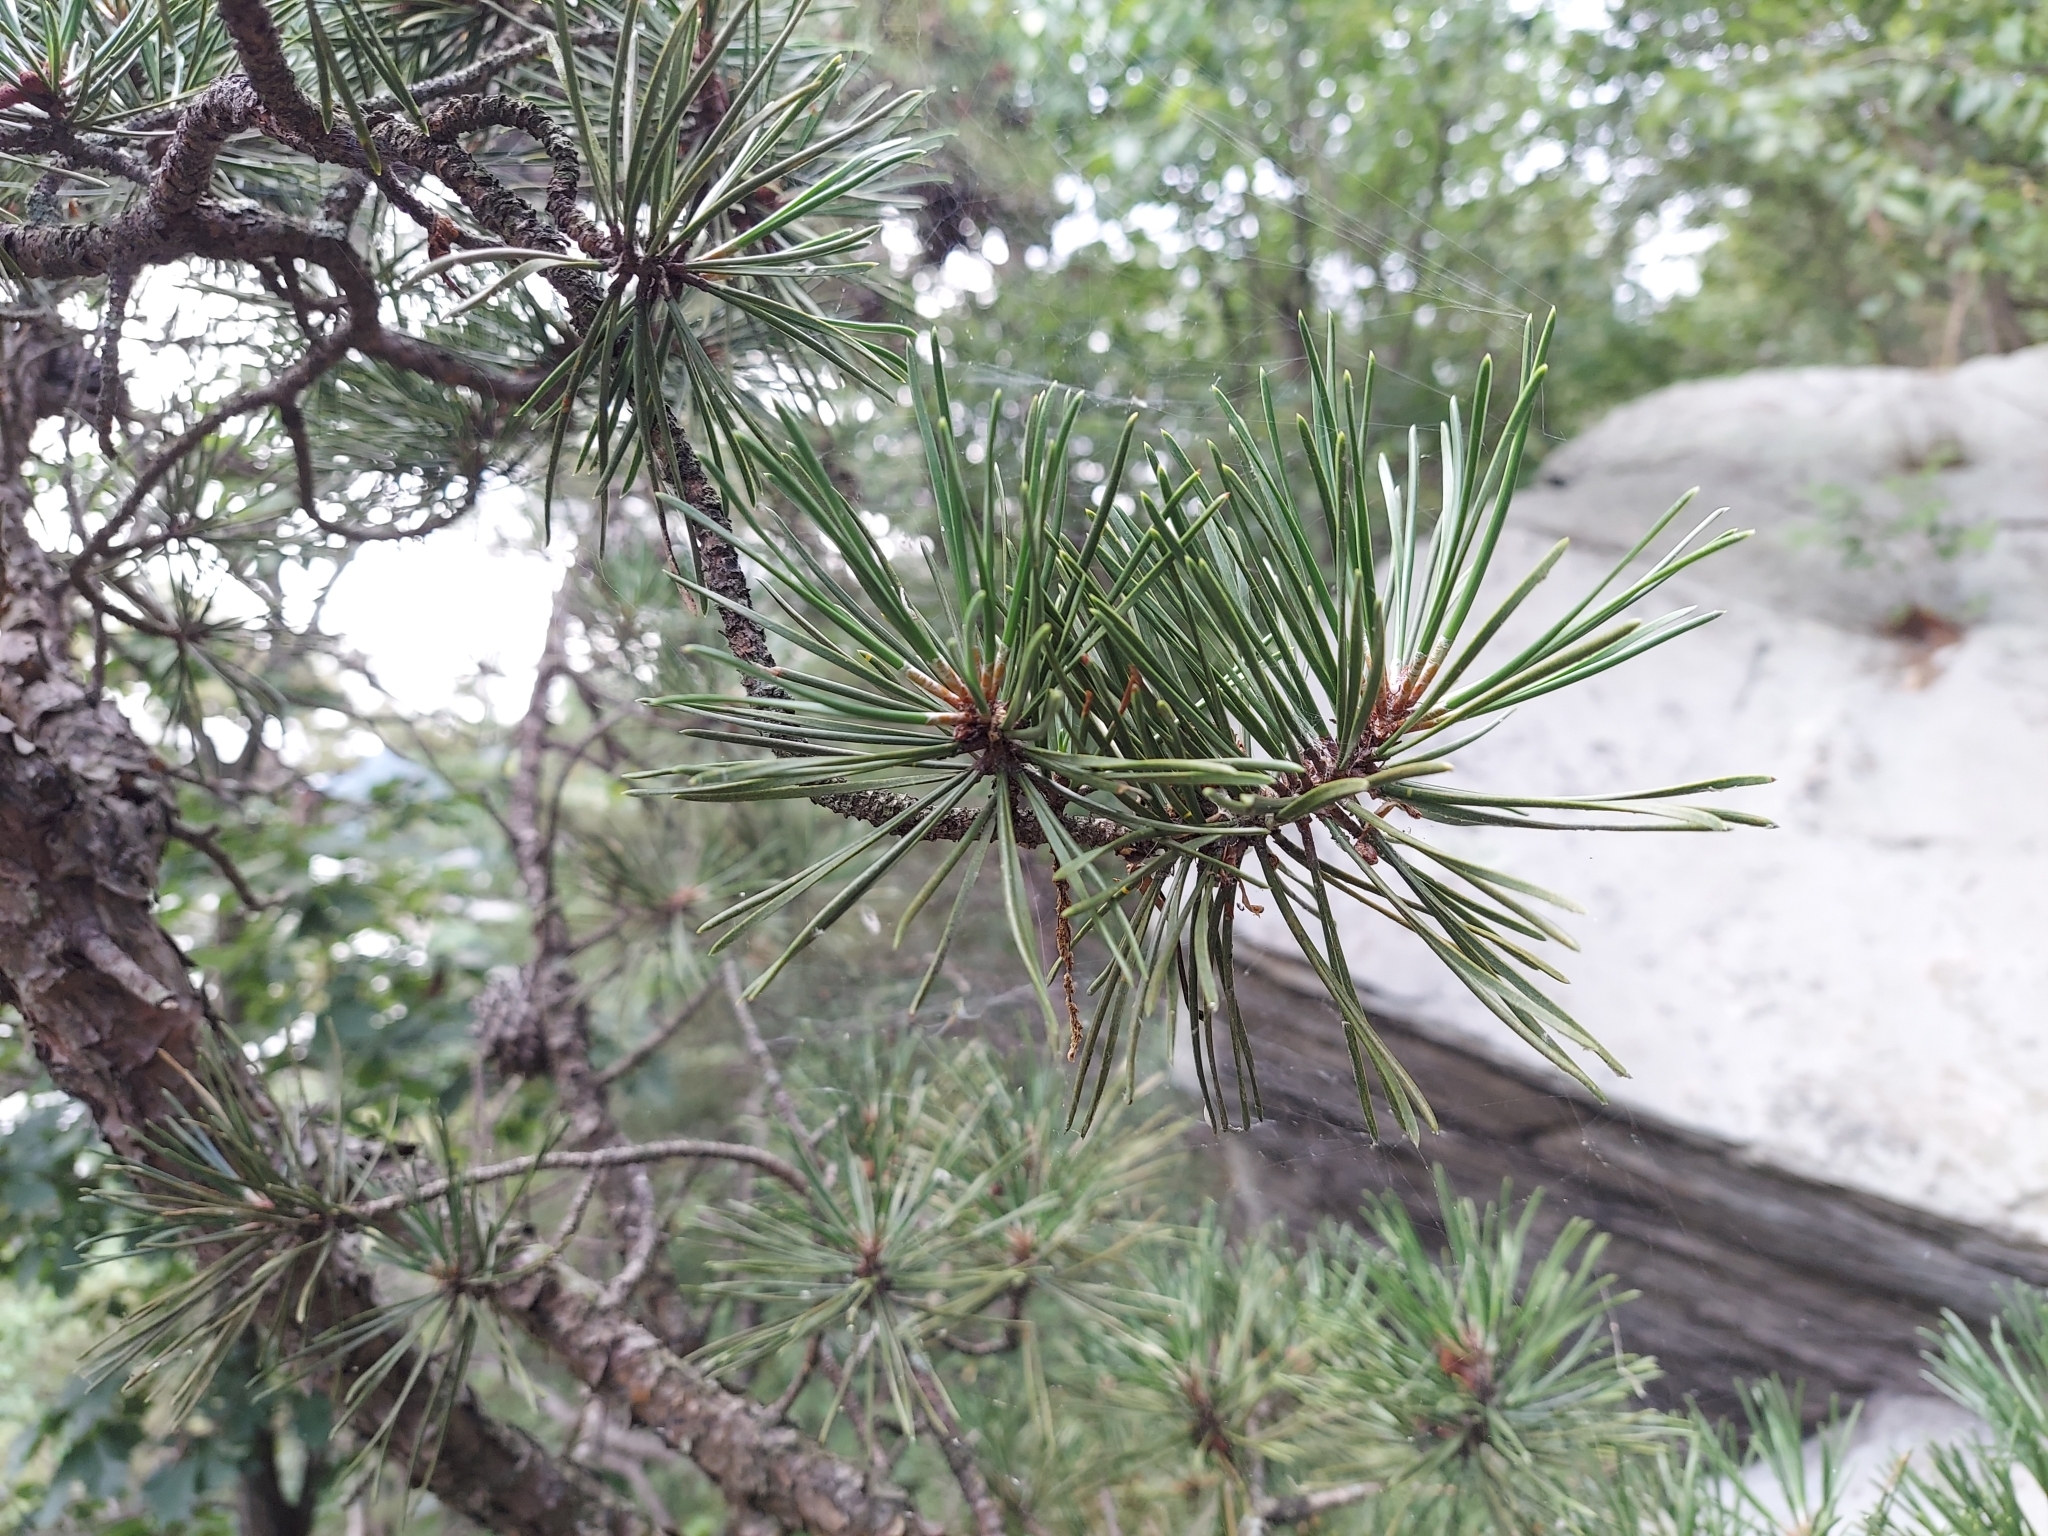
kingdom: Plantae
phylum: Tracheophyta
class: Pinopsida
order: Pinales
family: Pinaceae
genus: Pinus
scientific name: Pinus pungens
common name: Hickory pine
